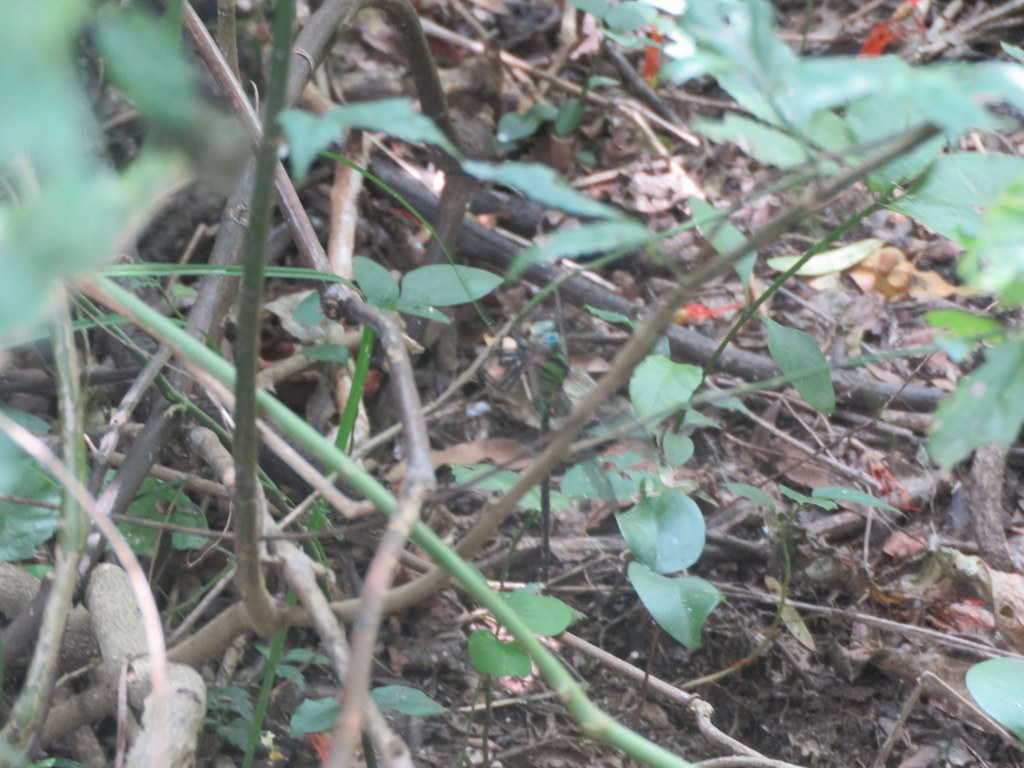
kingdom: Animalia
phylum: Arthropoda
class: Insecta
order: Odonata
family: Aeshnidae
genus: Triacanthagyna
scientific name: Triacanthagyna nympha
